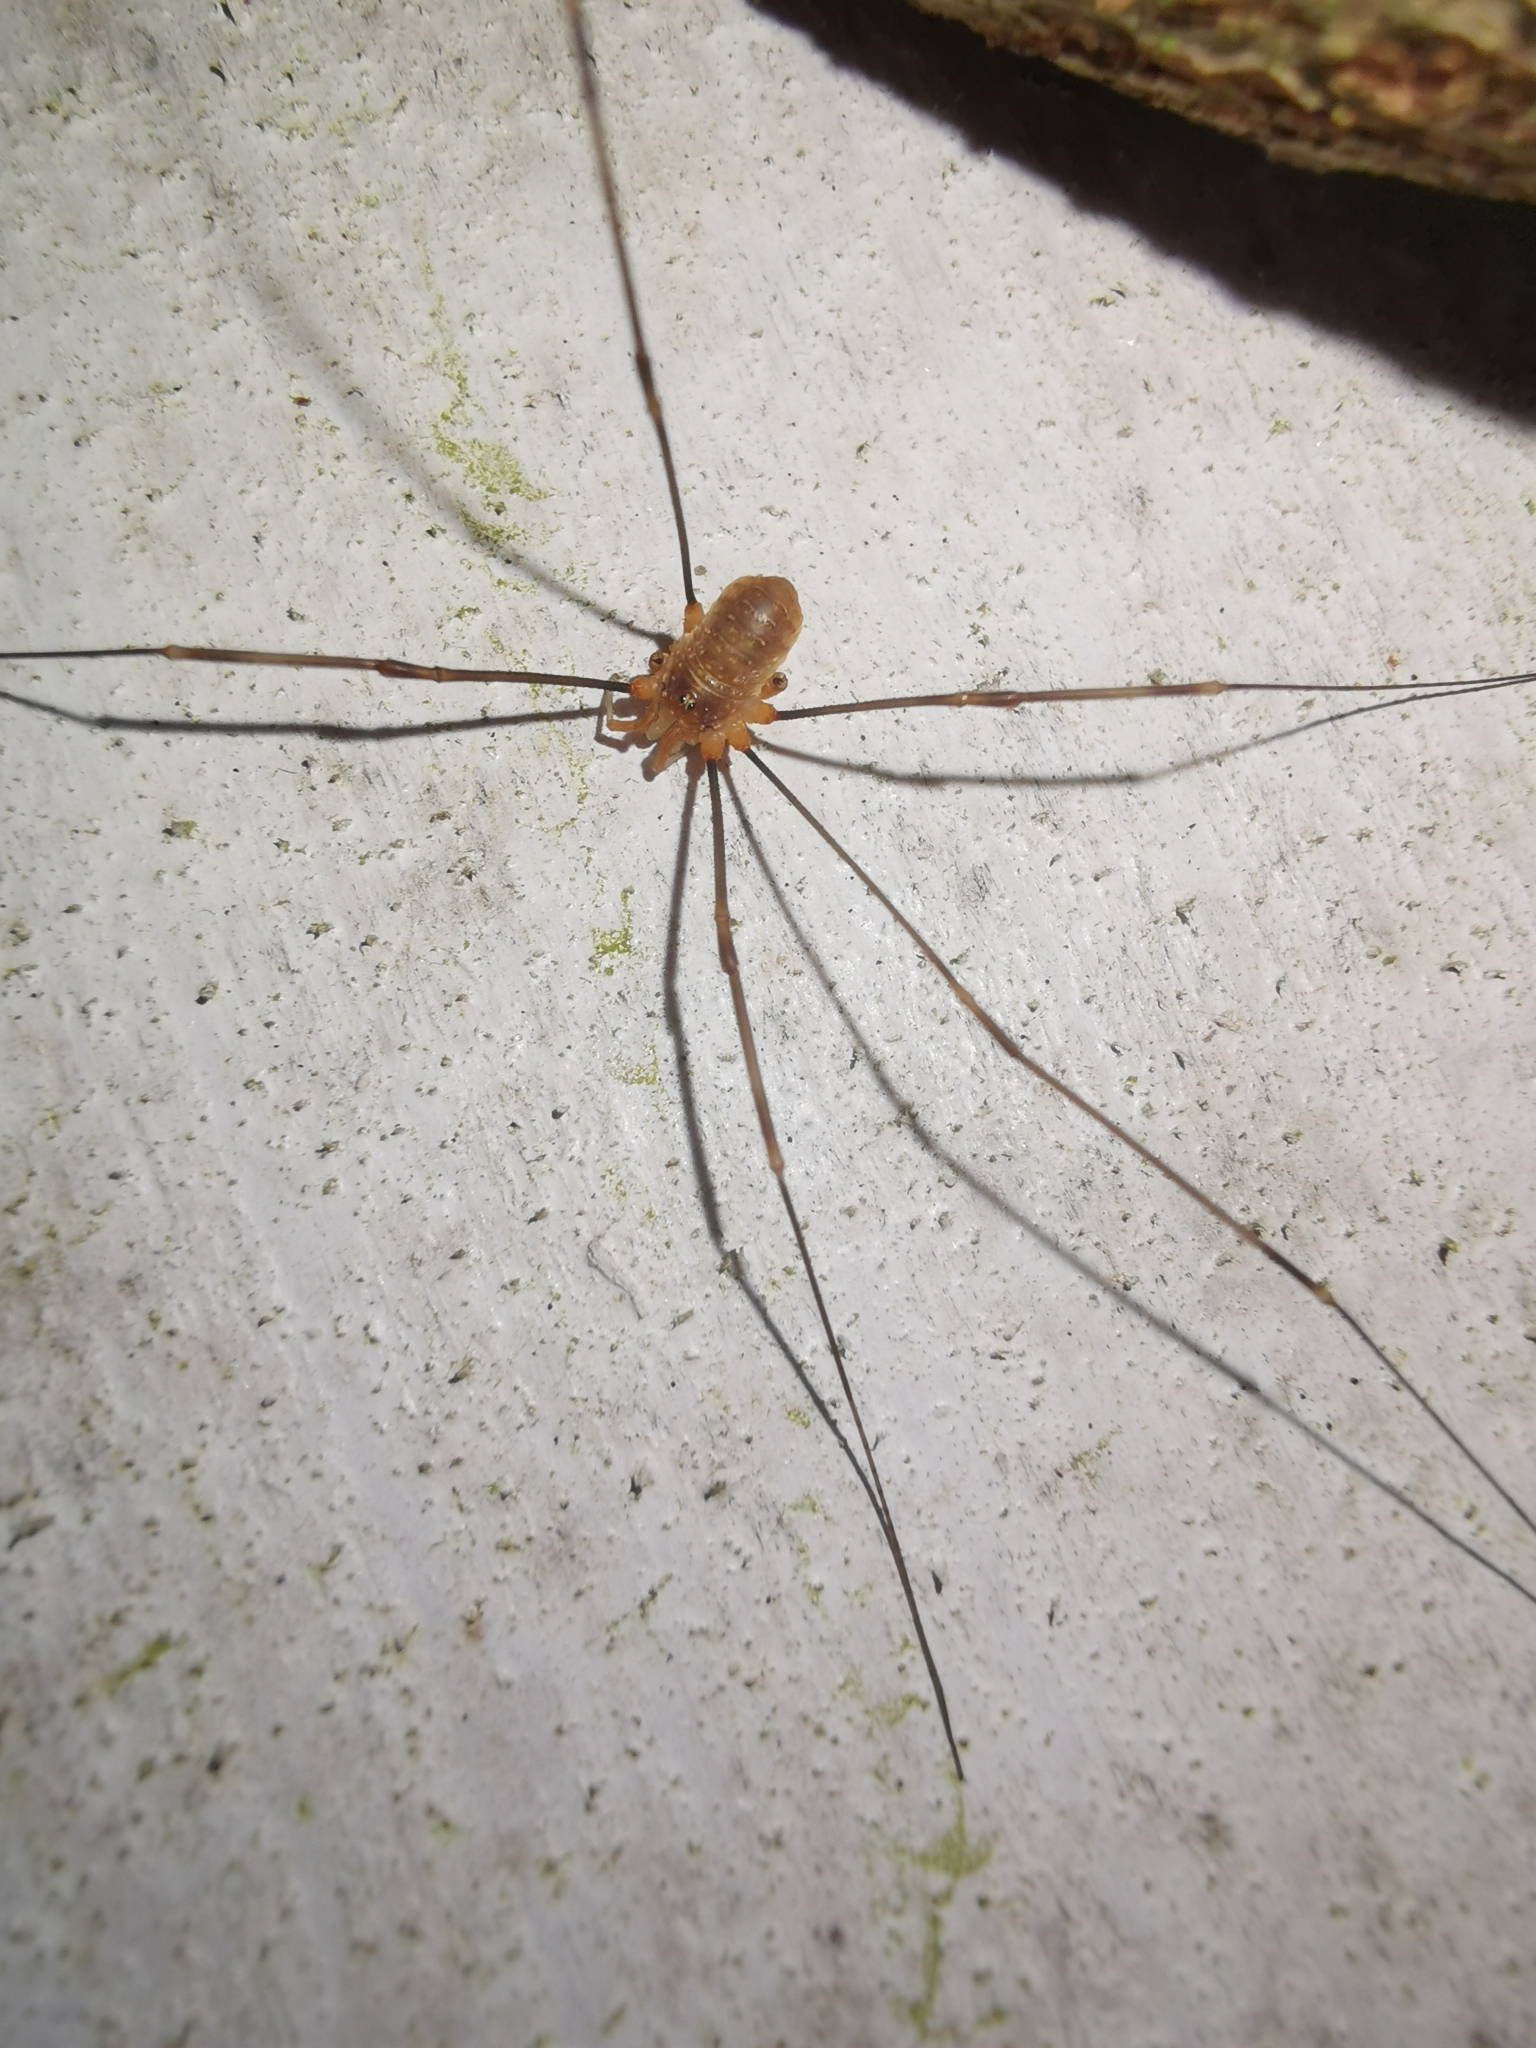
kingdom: Animalia
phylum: Arthropoda
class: Arachnida
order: Opiliones
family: Phalangiidae
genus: Opilio
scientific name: Opilio canestrinii
